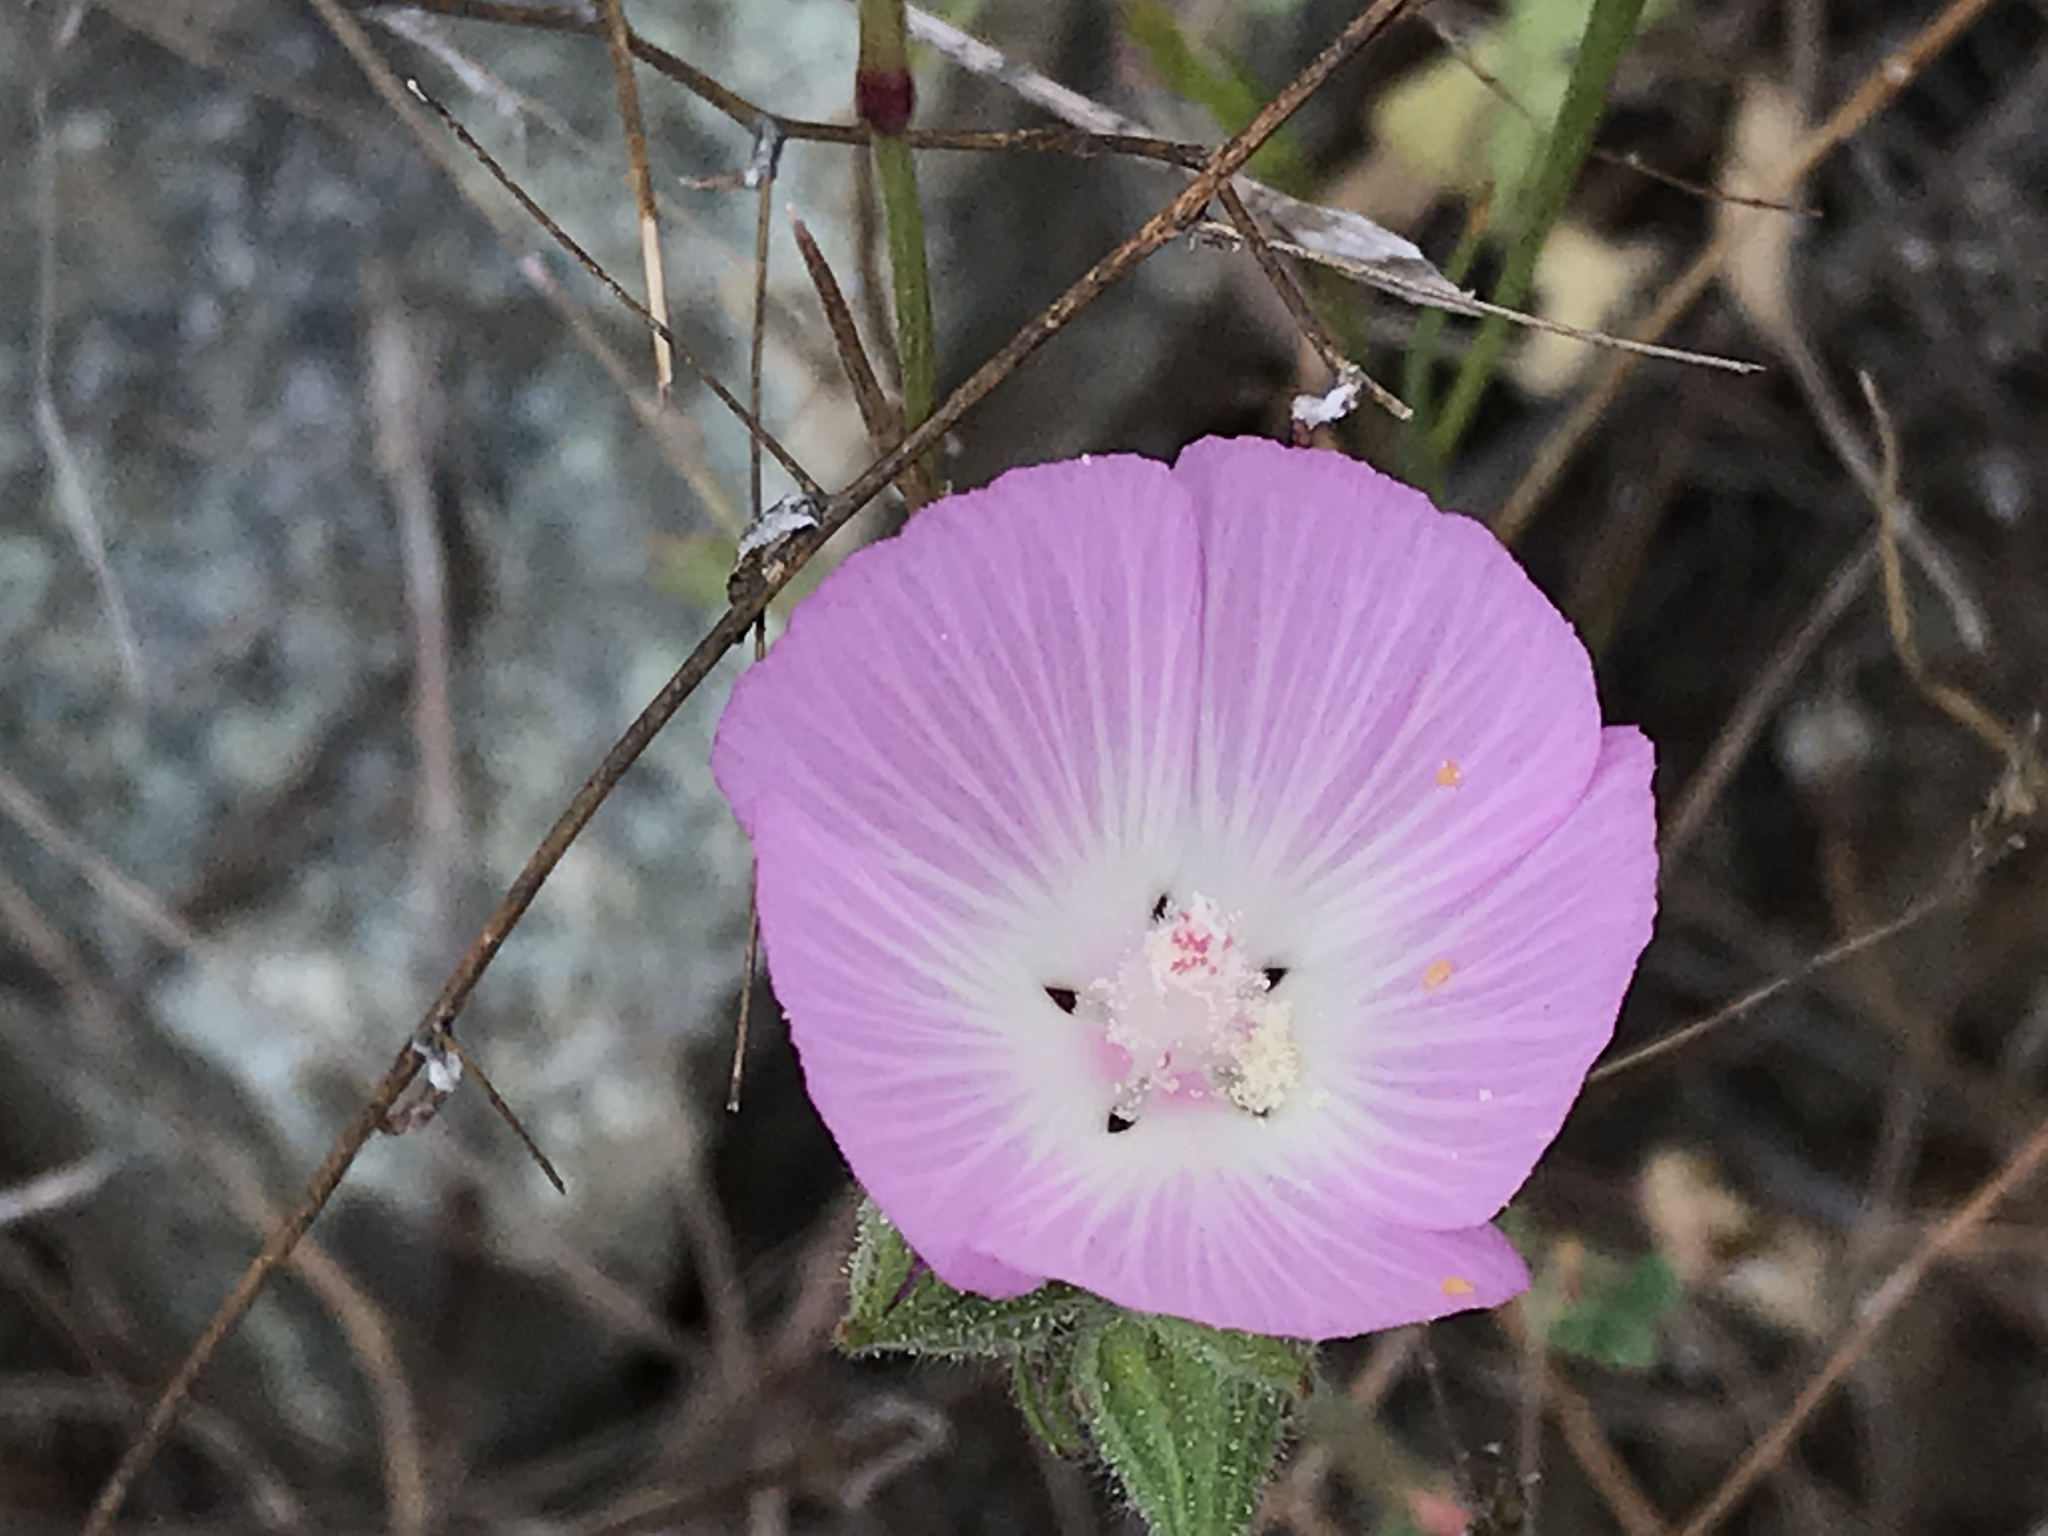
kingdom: Plantae
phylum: Tracheophyta
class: Magnoliopsida
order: Malvales
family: Malvaceae
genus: Sidalcea
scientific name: Sidalcea diploscypha
